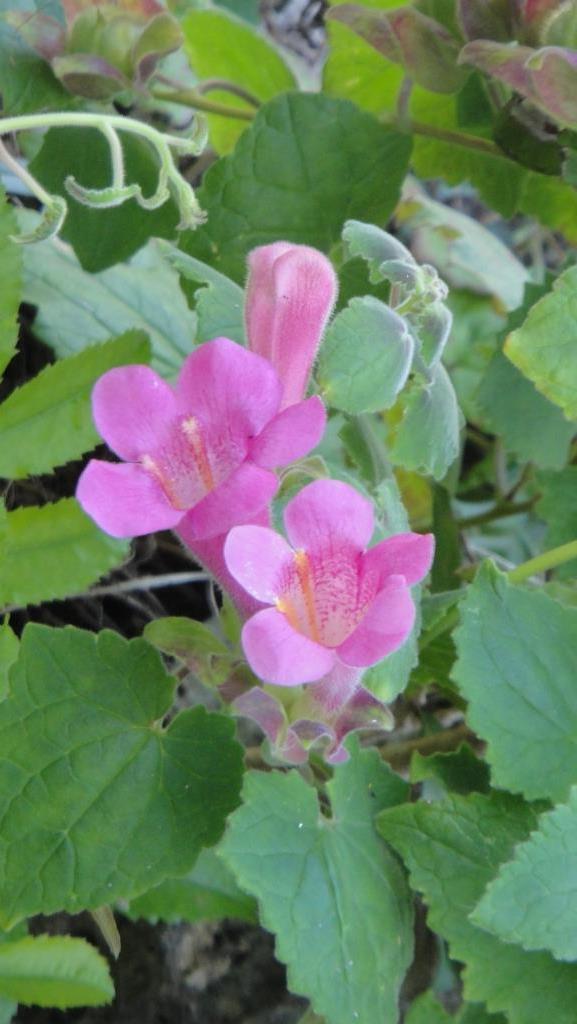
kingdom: Plantae
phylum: Tracheophyta
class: Magnoliopsida
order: Lamiales
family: Plantaginaceae
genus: Lophospermum
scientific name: Lophospermum erubescens
